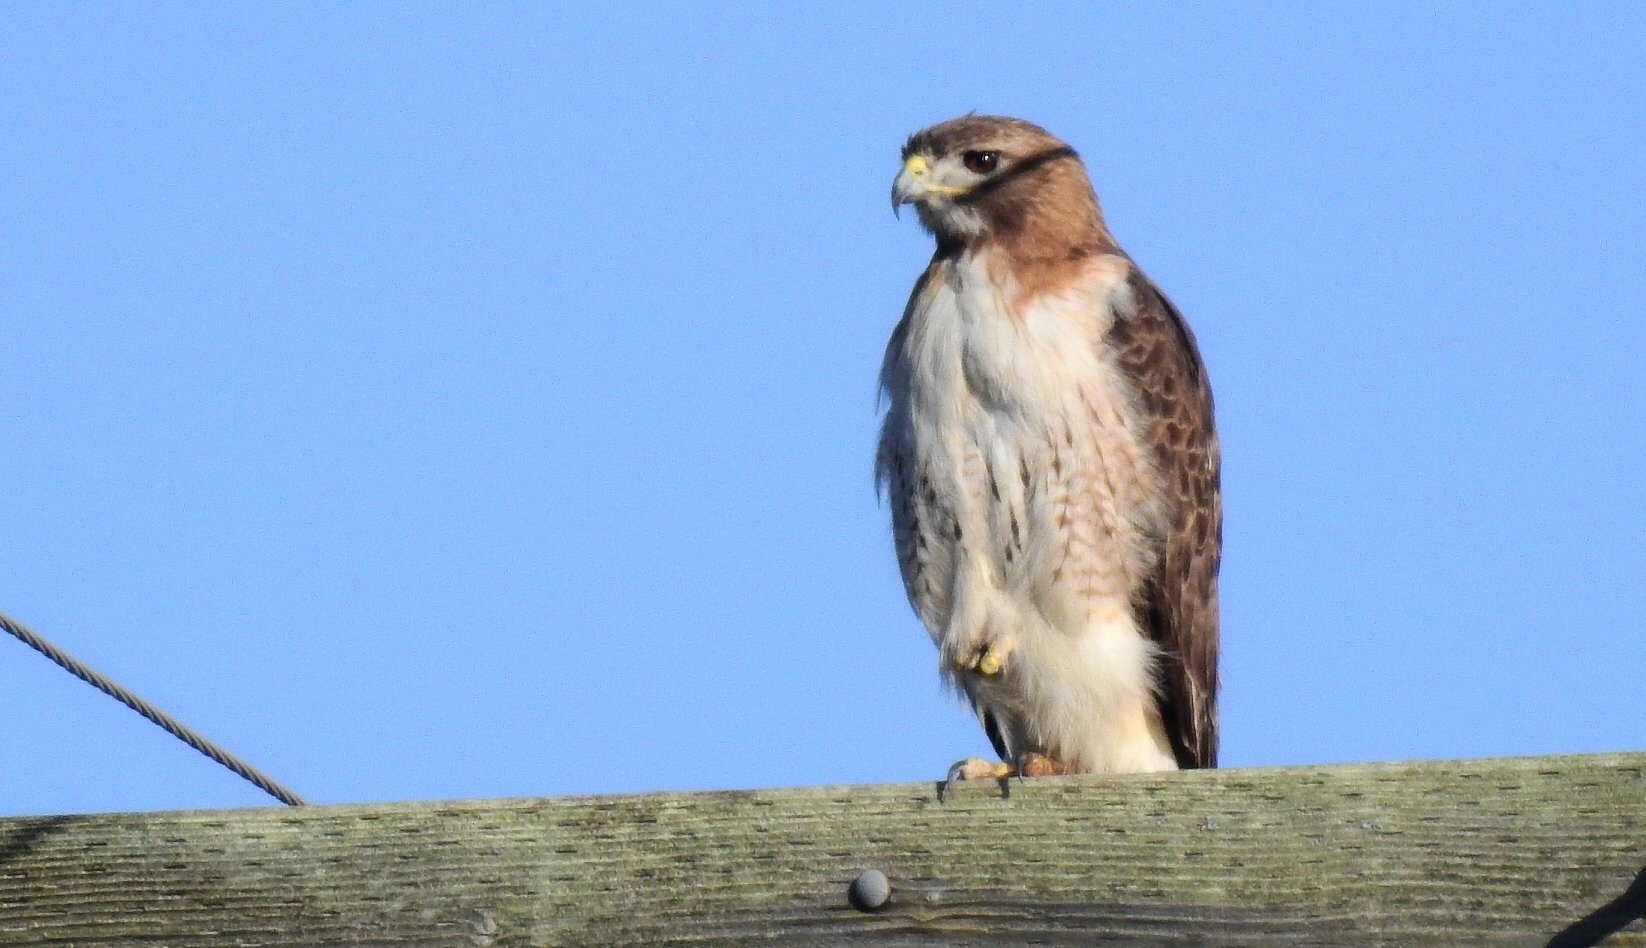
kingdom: Animalia
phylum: Chordata
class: Aves
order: Accipitriformes
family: Accipitridae
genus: Buteo
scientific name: Buteo jamaicensis
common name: Red-tailed hawk
